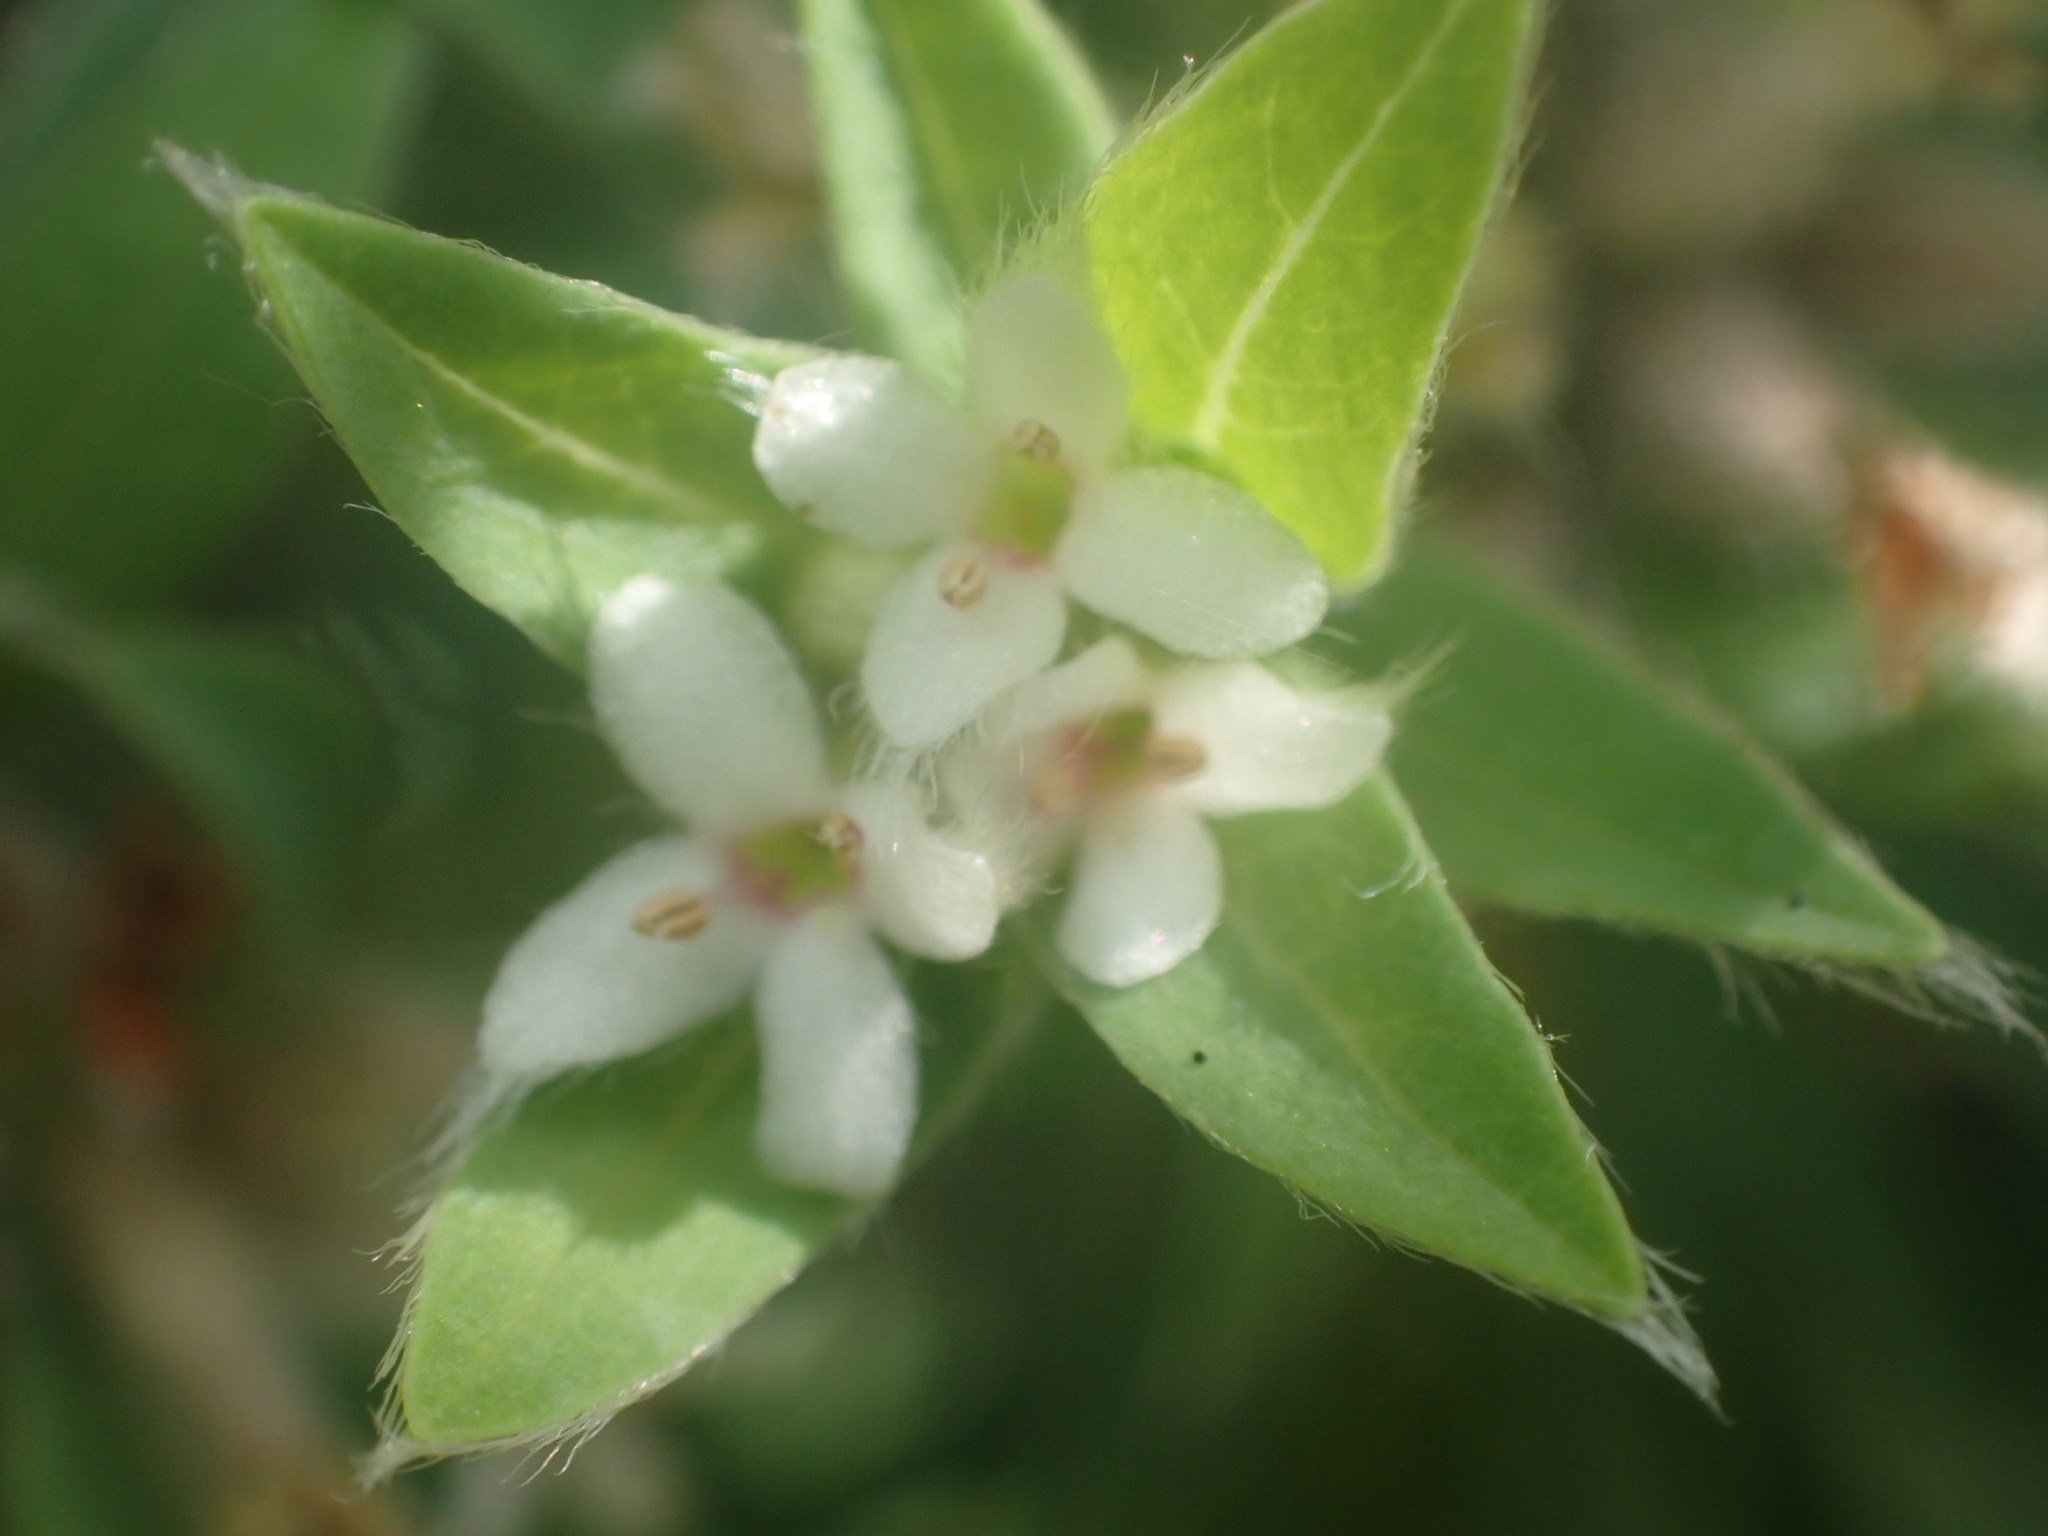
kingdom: Plantae
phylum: Tracheophyta
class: Magnoliopsida
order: Malvales
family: Thymelaeaceae
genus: Pimelea
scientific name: Pimelea tomentosa
